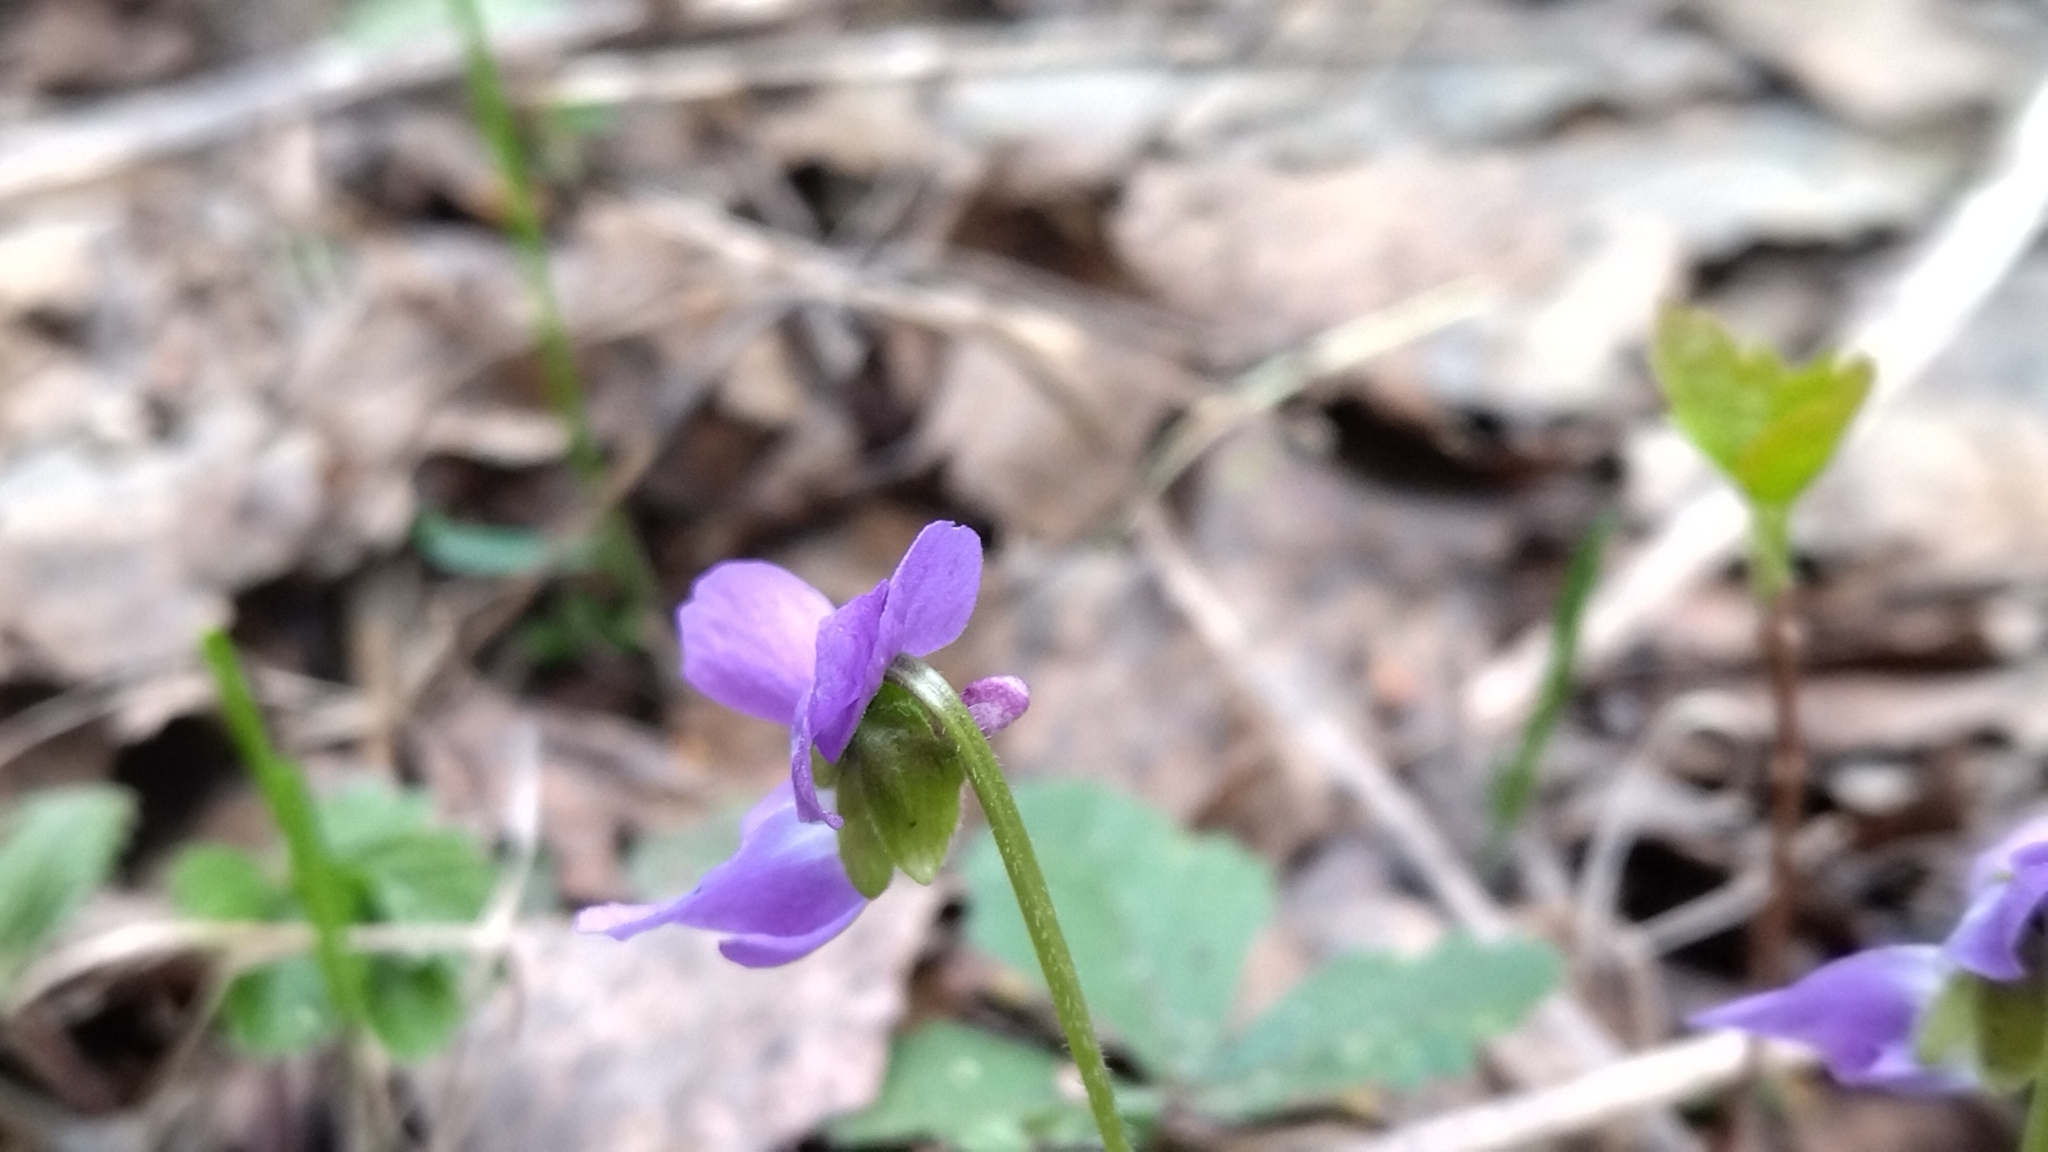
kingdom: Plantae
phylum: Tracheophyta
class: Magnoliopsida
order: Malpighiales
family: Violaceae
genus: Viola
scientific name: Viola hirta
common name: Hairy violet
